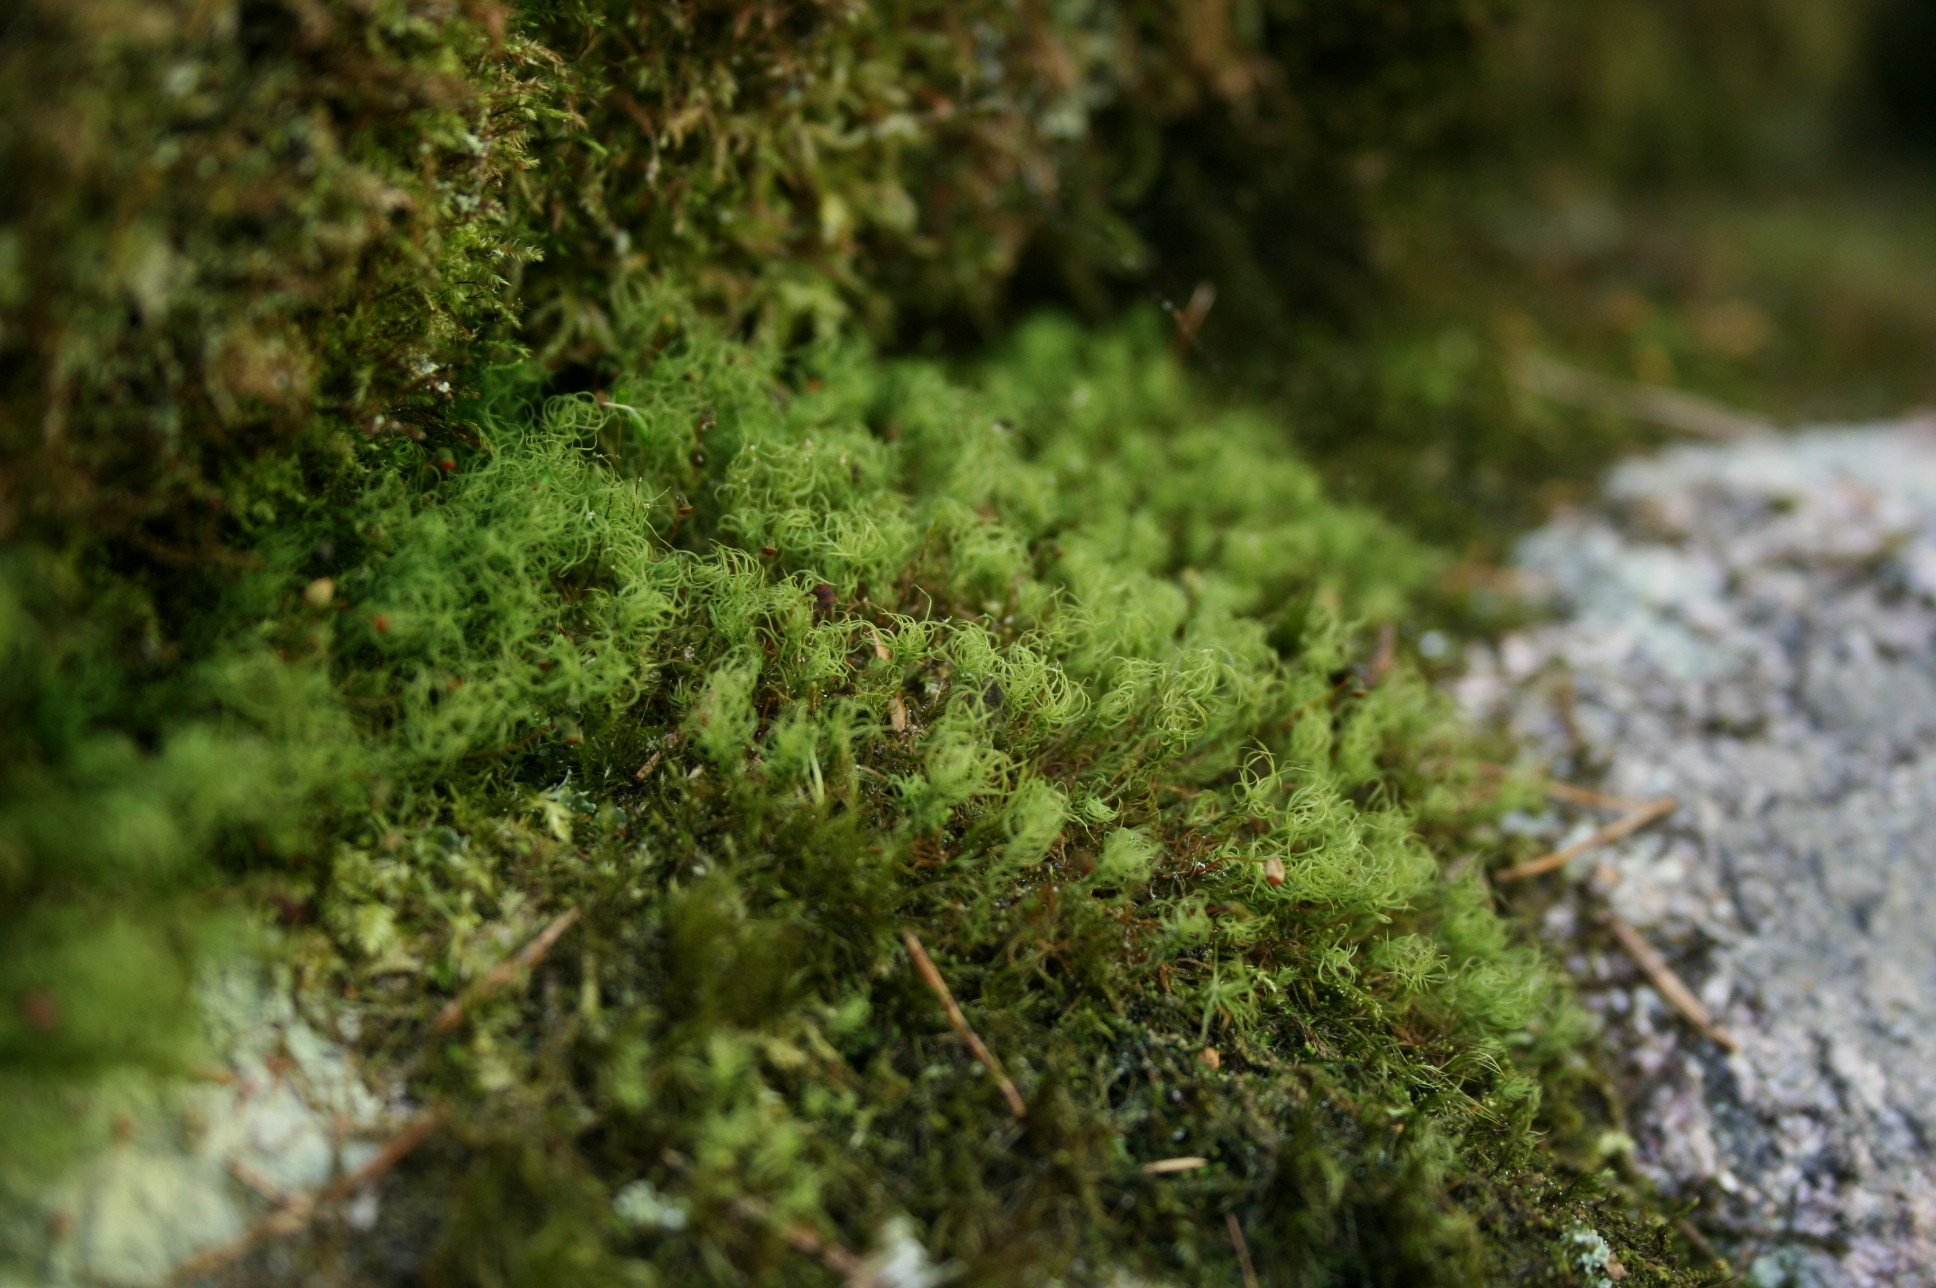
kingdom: Plantae
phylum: Bryophyta
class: Bryopsida
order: Bartramiales
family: Bartramiaceae
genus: Bartramia
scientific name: Bartramia ithyphylla
